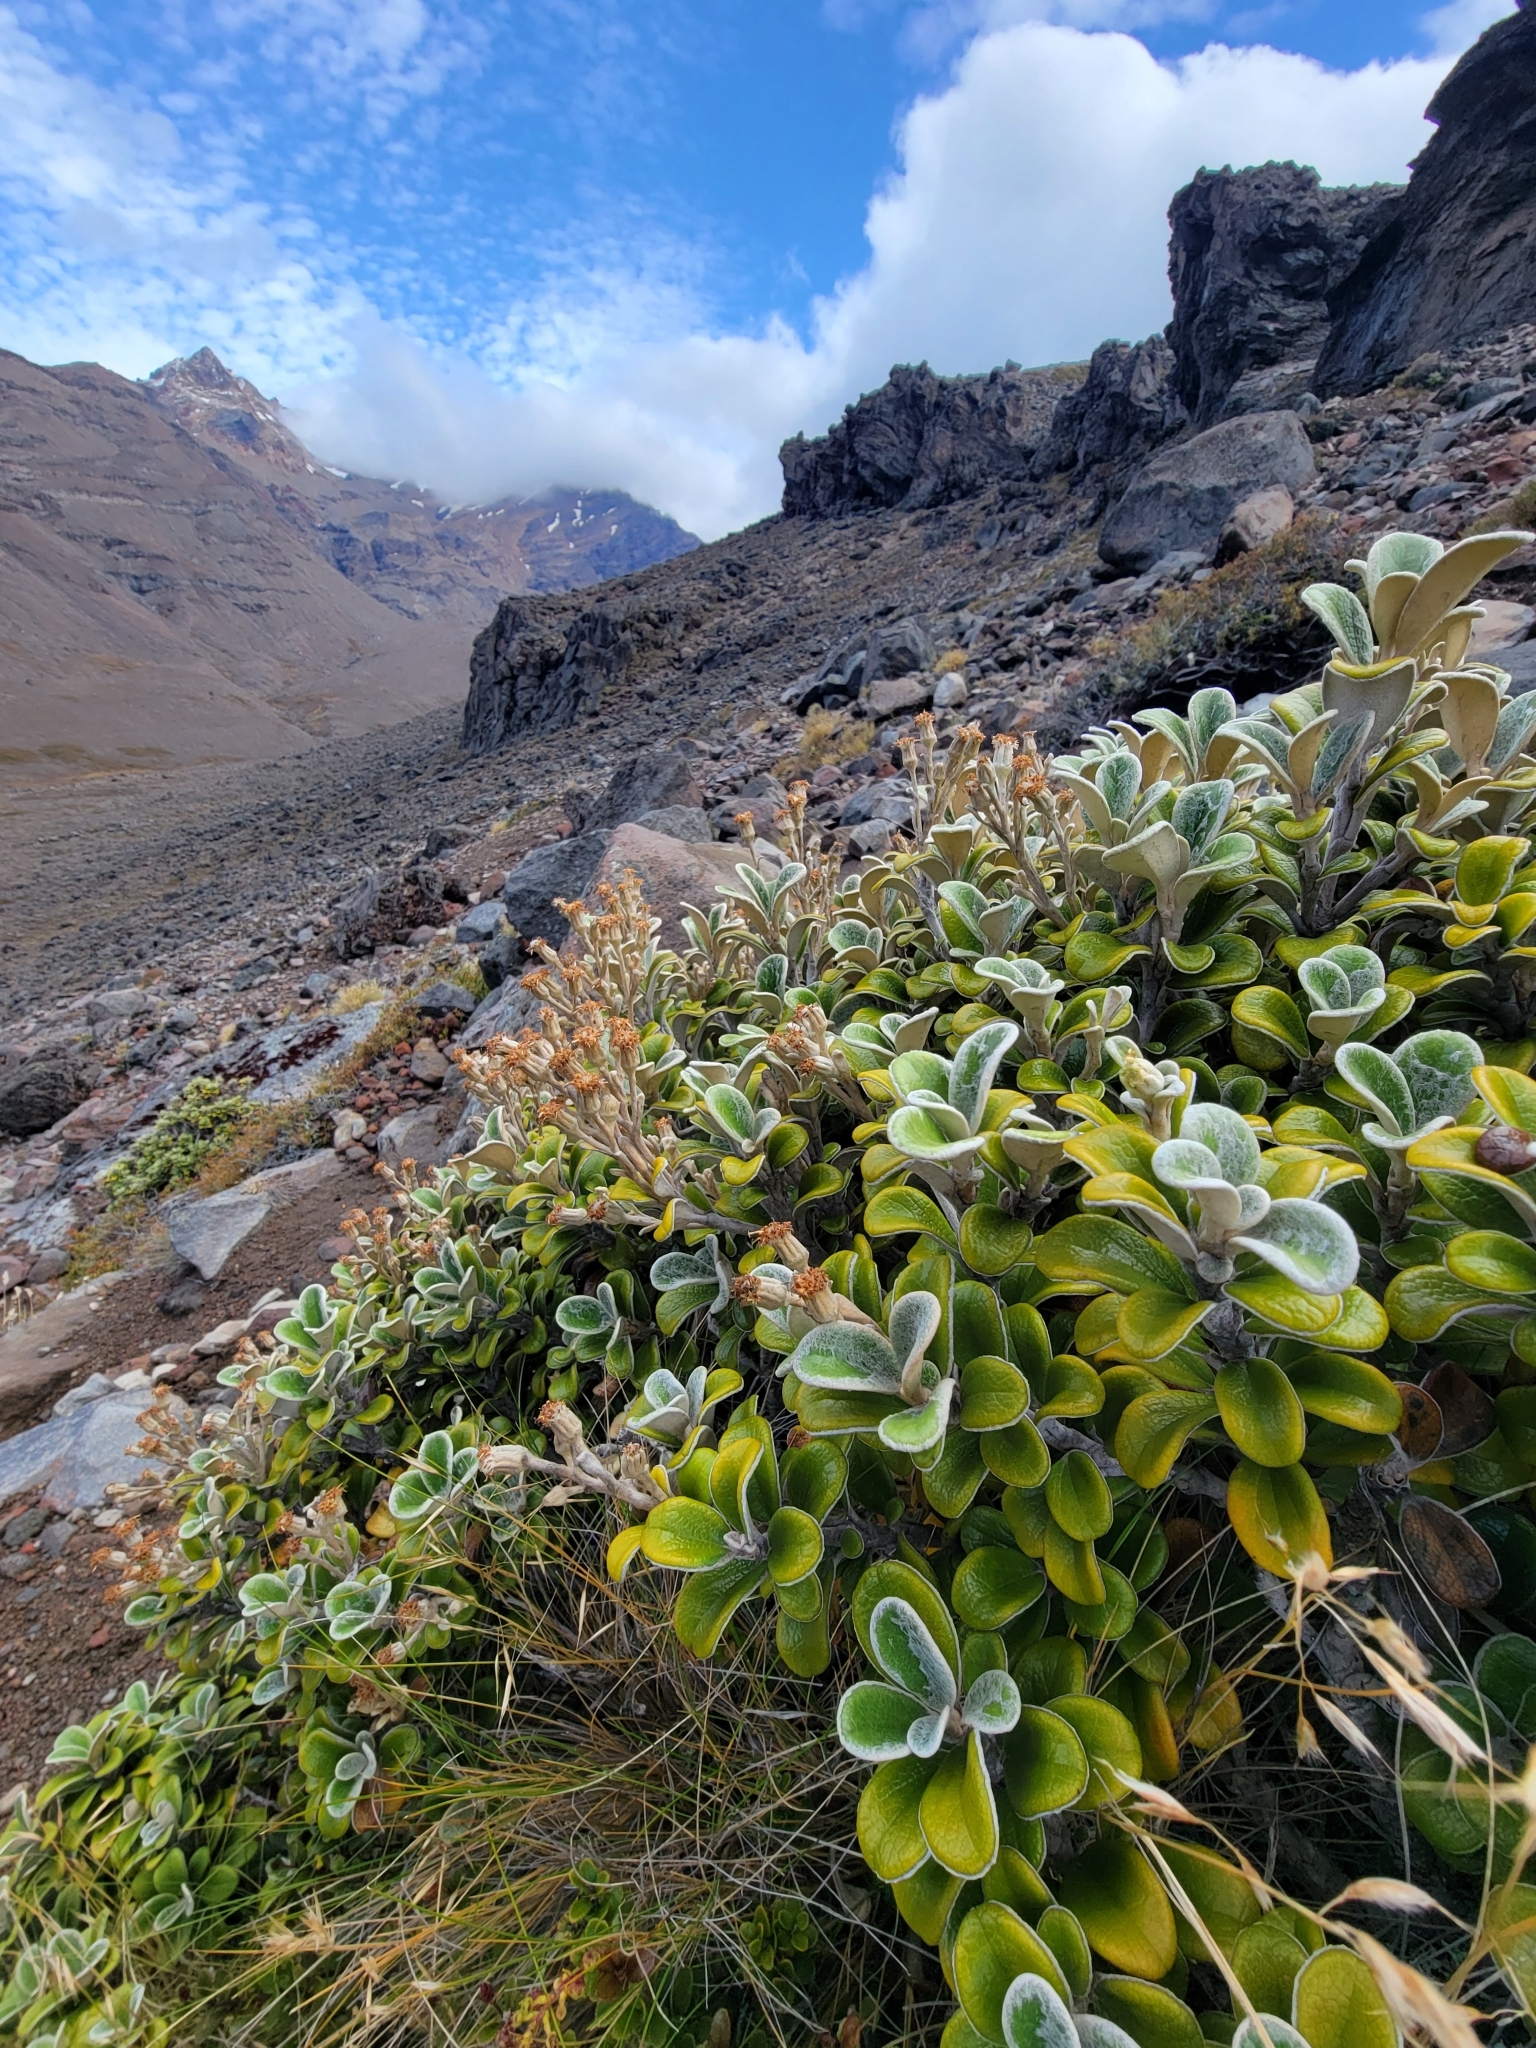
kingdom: Plantae
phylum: Tracheophyta
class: Magnoliopsida
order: Asterales
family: Asteraceae
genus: Brachyglottis
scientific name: Brachyglottis bidwillii
